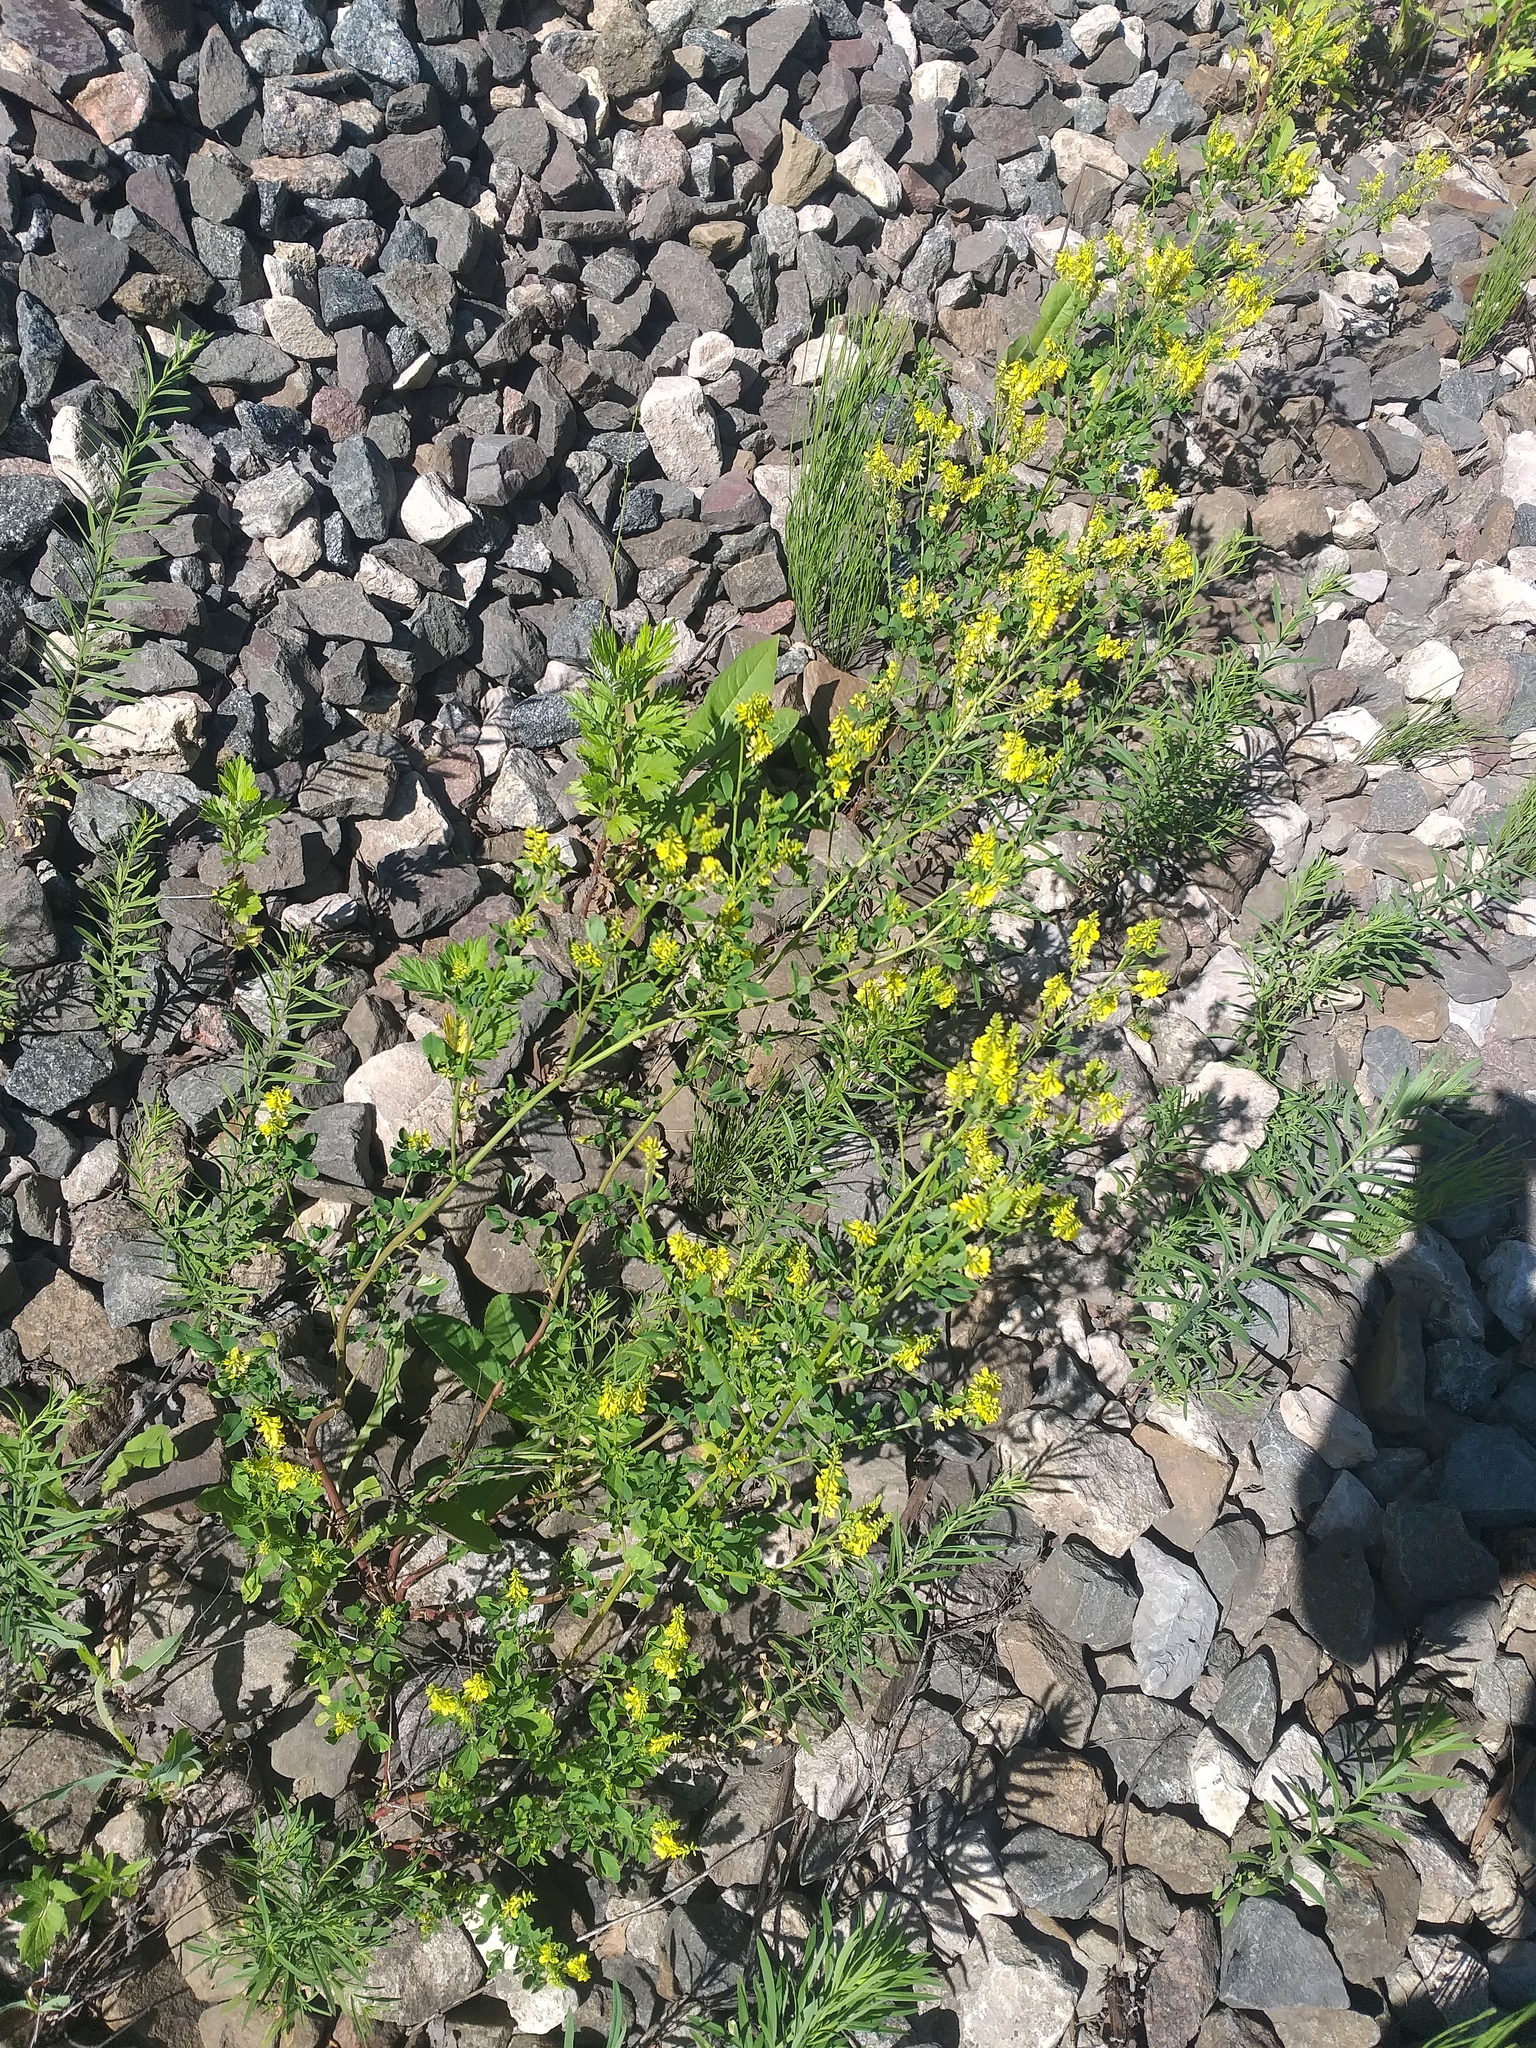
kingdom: Plantae
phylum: Tracheophyta
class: Magnoliopsida
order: Fabales
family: Fabaceae
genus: Melilotus
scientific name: Melilotus officinalis
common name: Sweetclover
